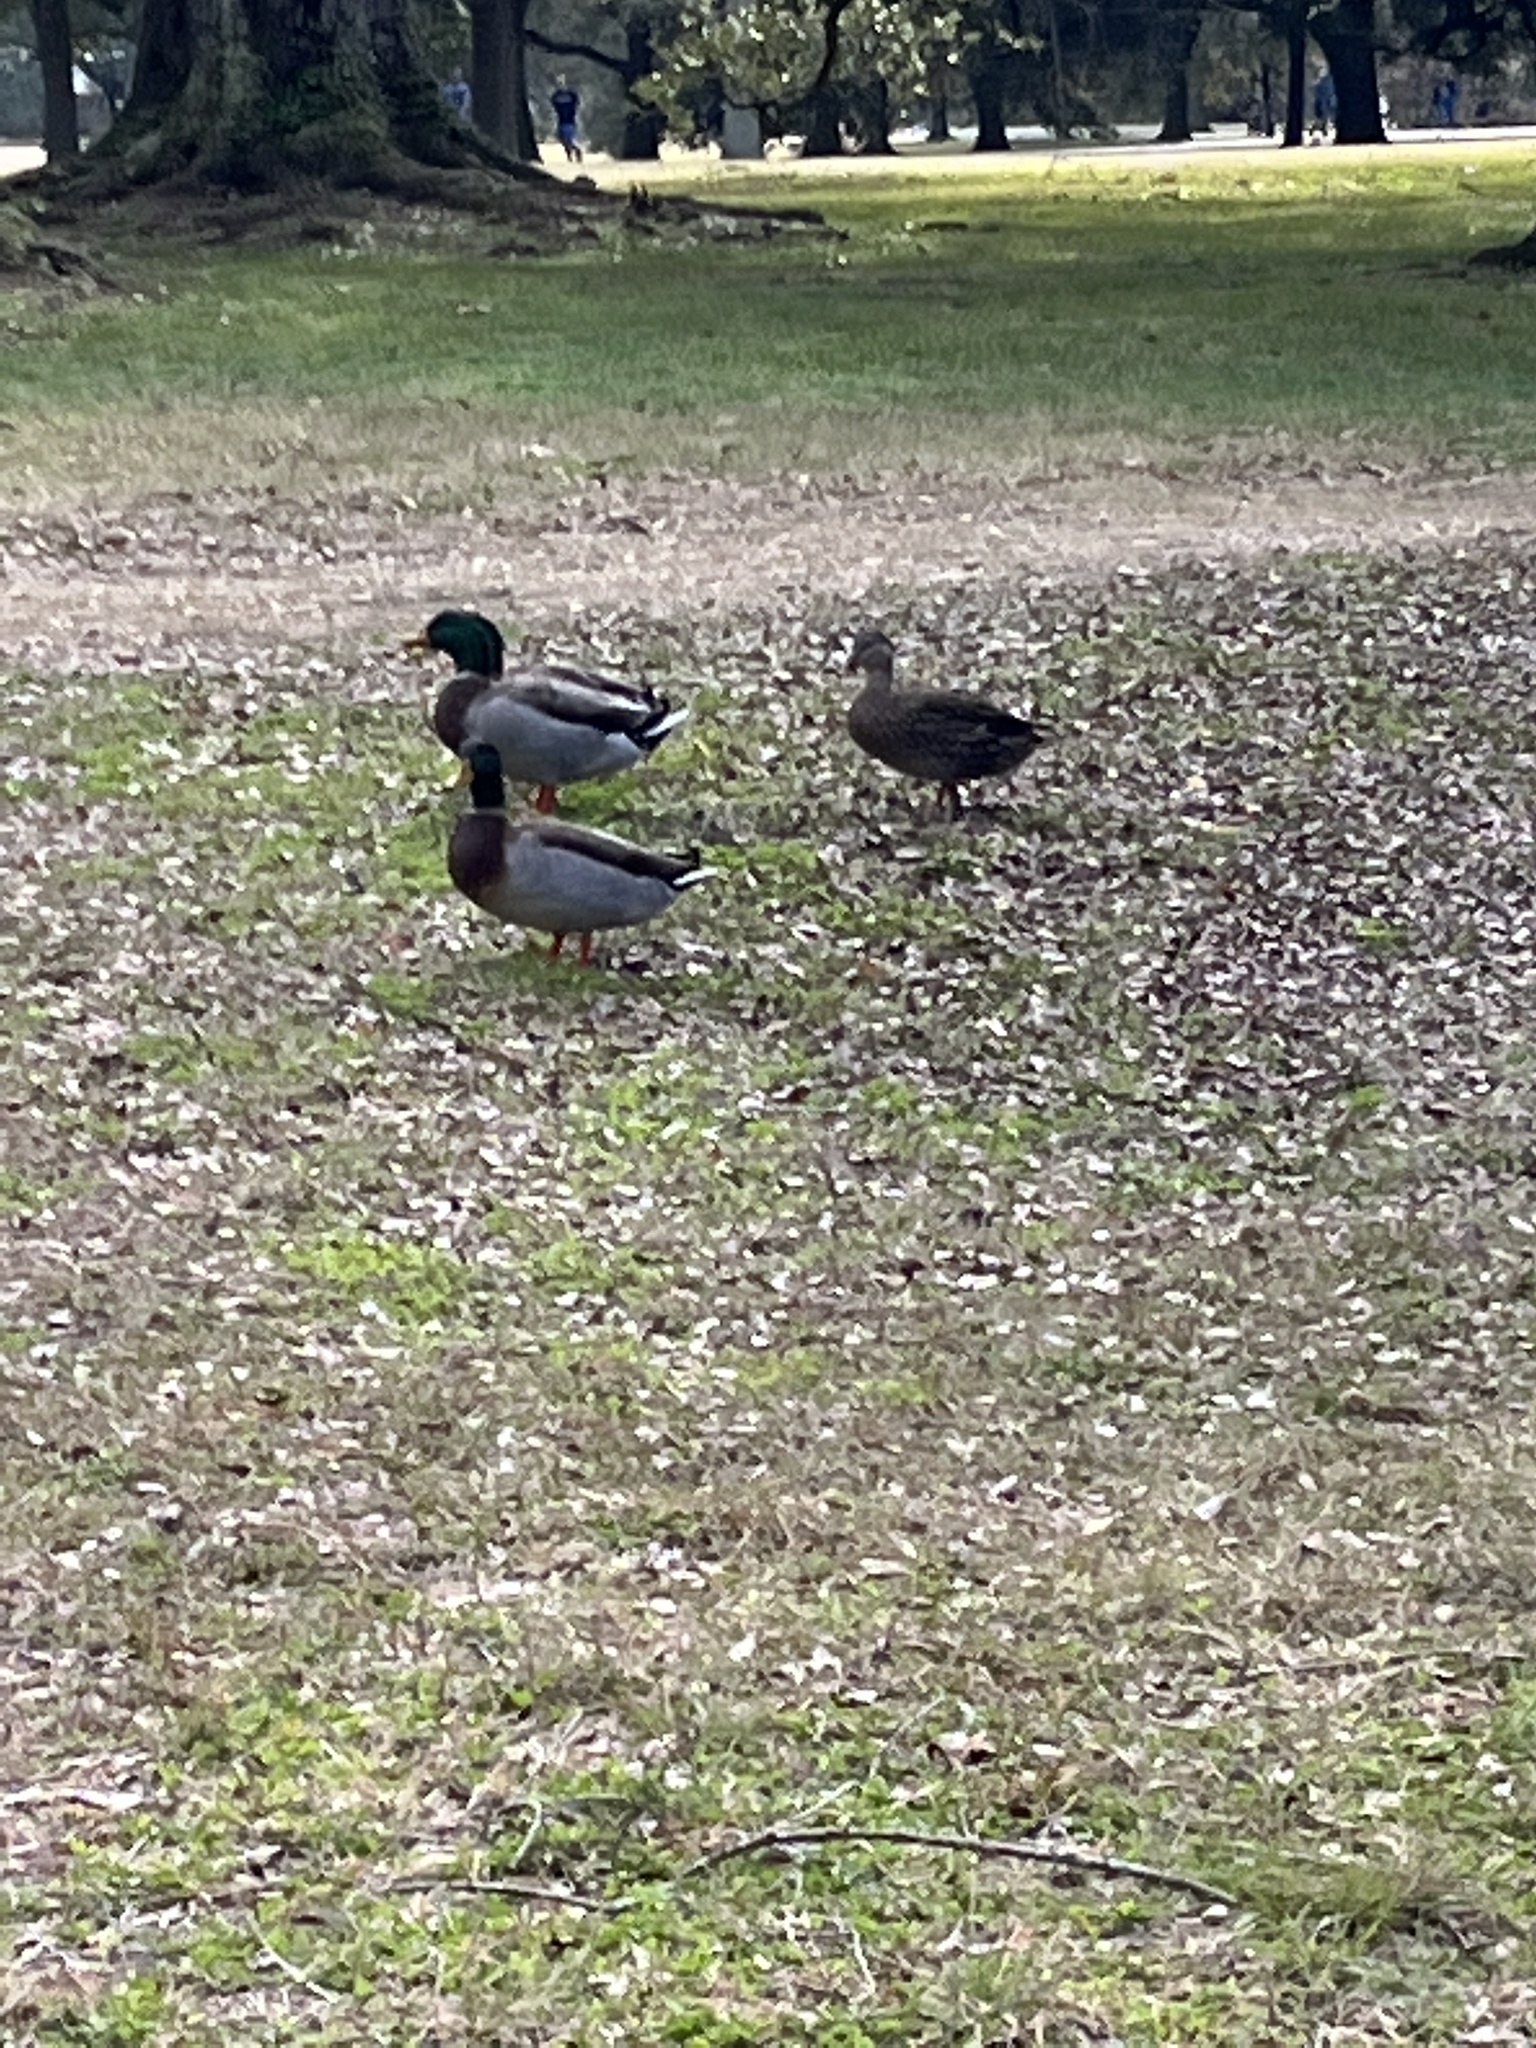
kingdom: Animalia
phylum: Chordata
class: Aves
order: Anseriformes
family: Anatidae
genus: Anas
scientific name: Anas platyrhynchos
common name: Mallard
